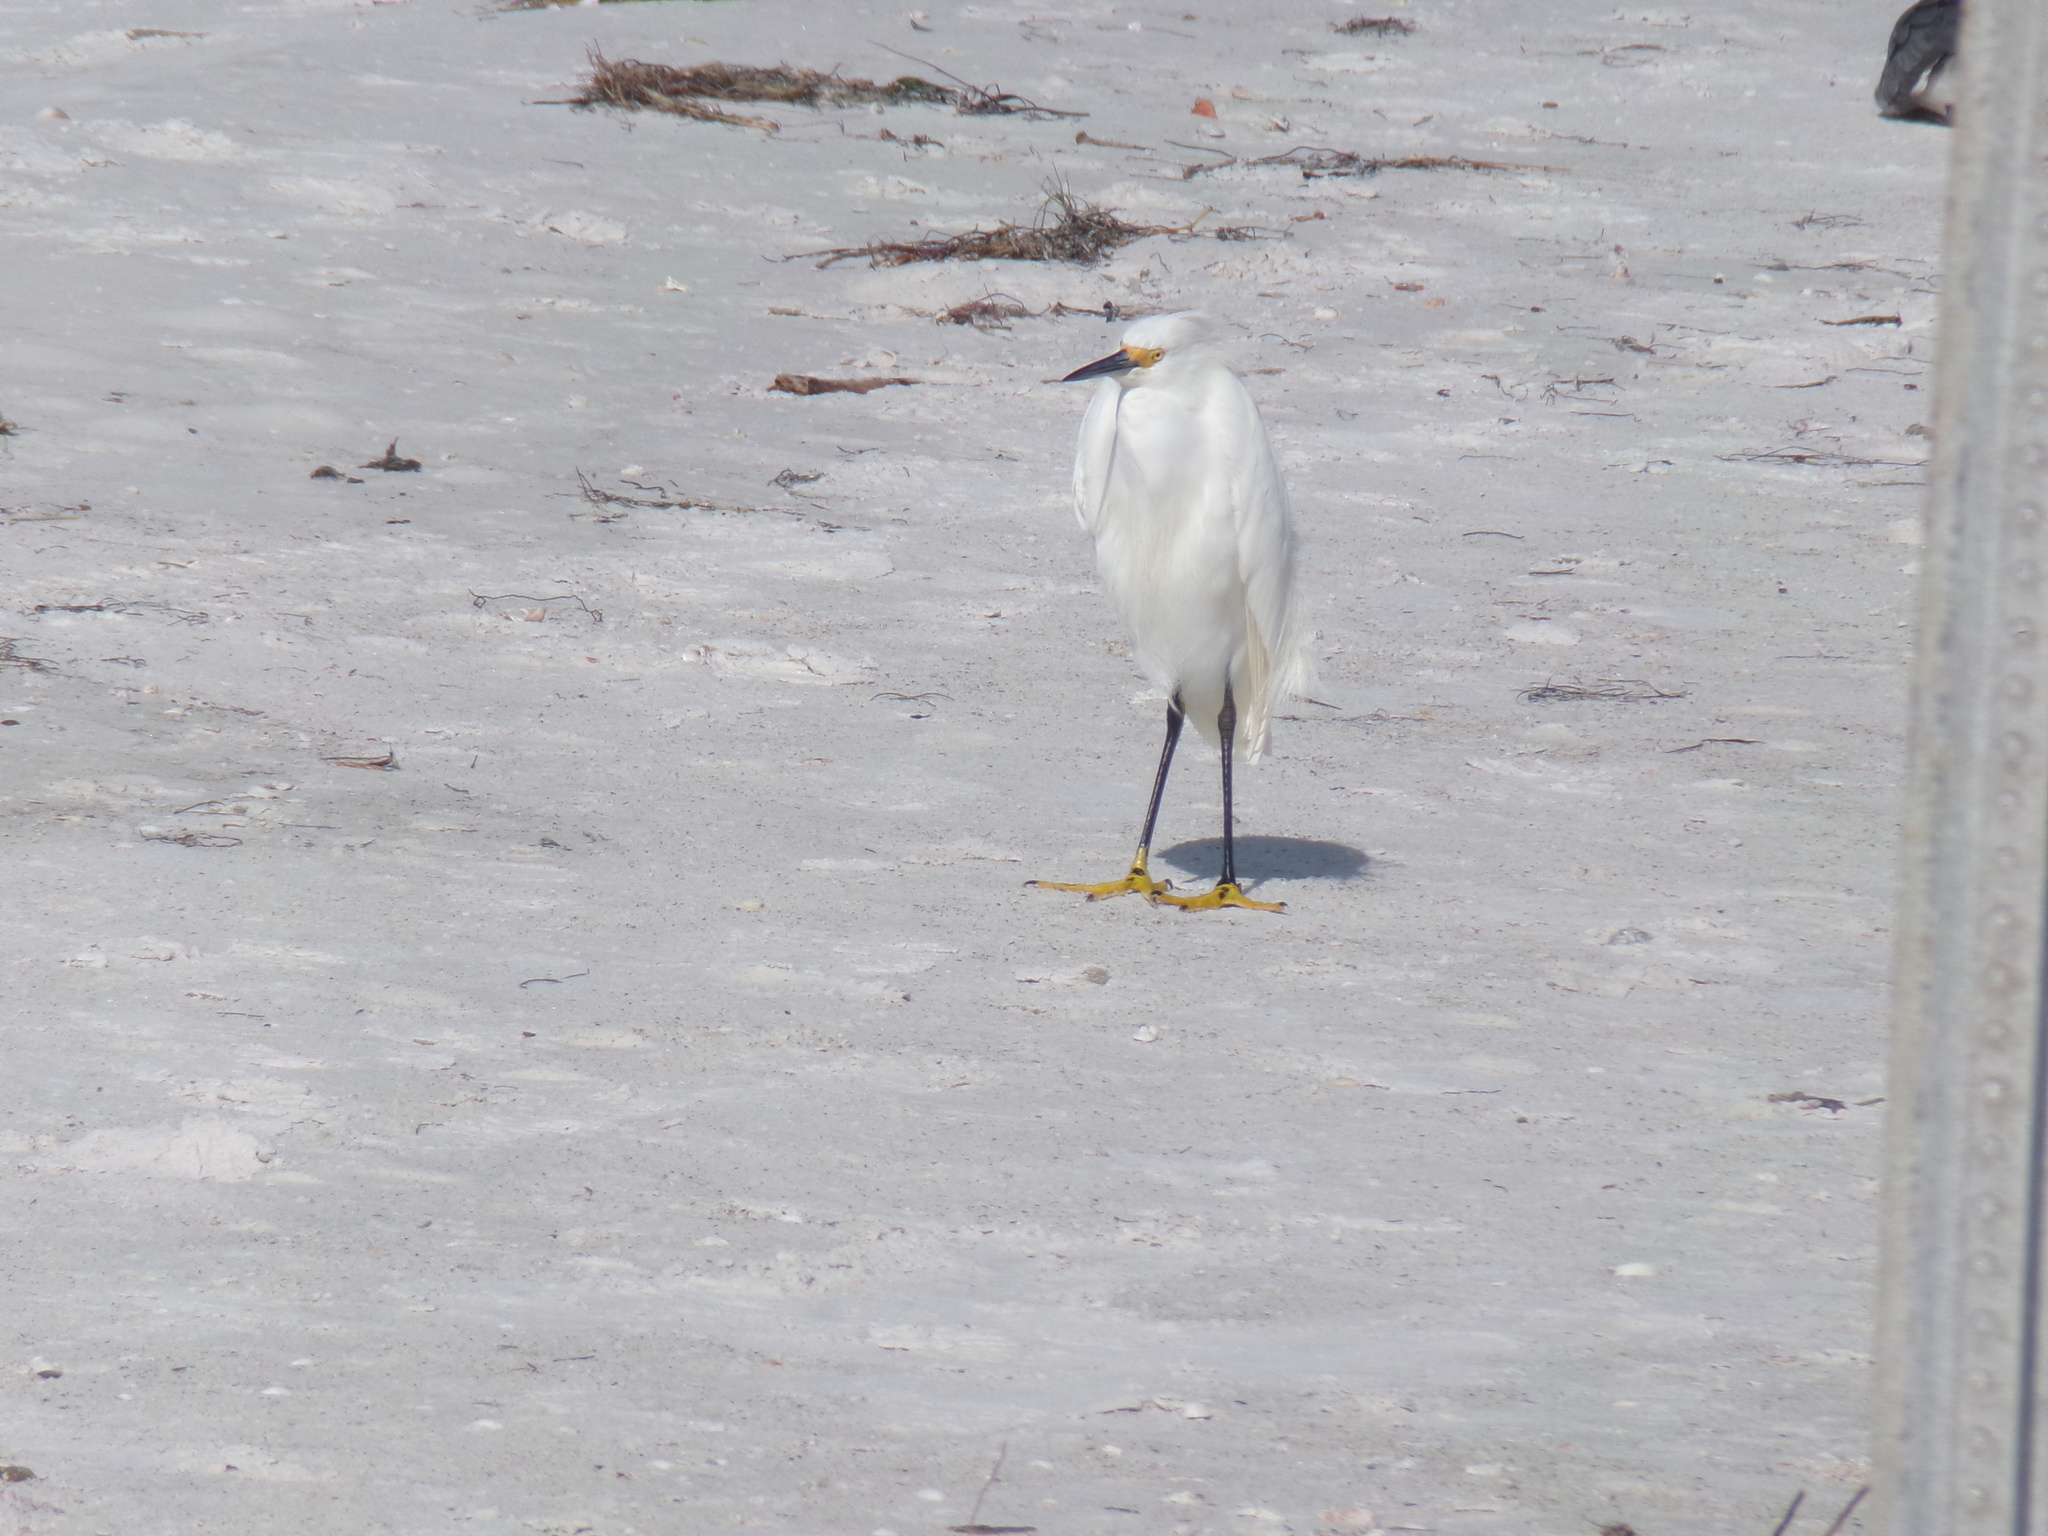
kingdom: Animalia
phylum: Chordata
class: Aves
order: Pelecaniformes
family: Ardeidae
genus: Egretta
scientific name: Egretta thula
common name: Snowy egret
